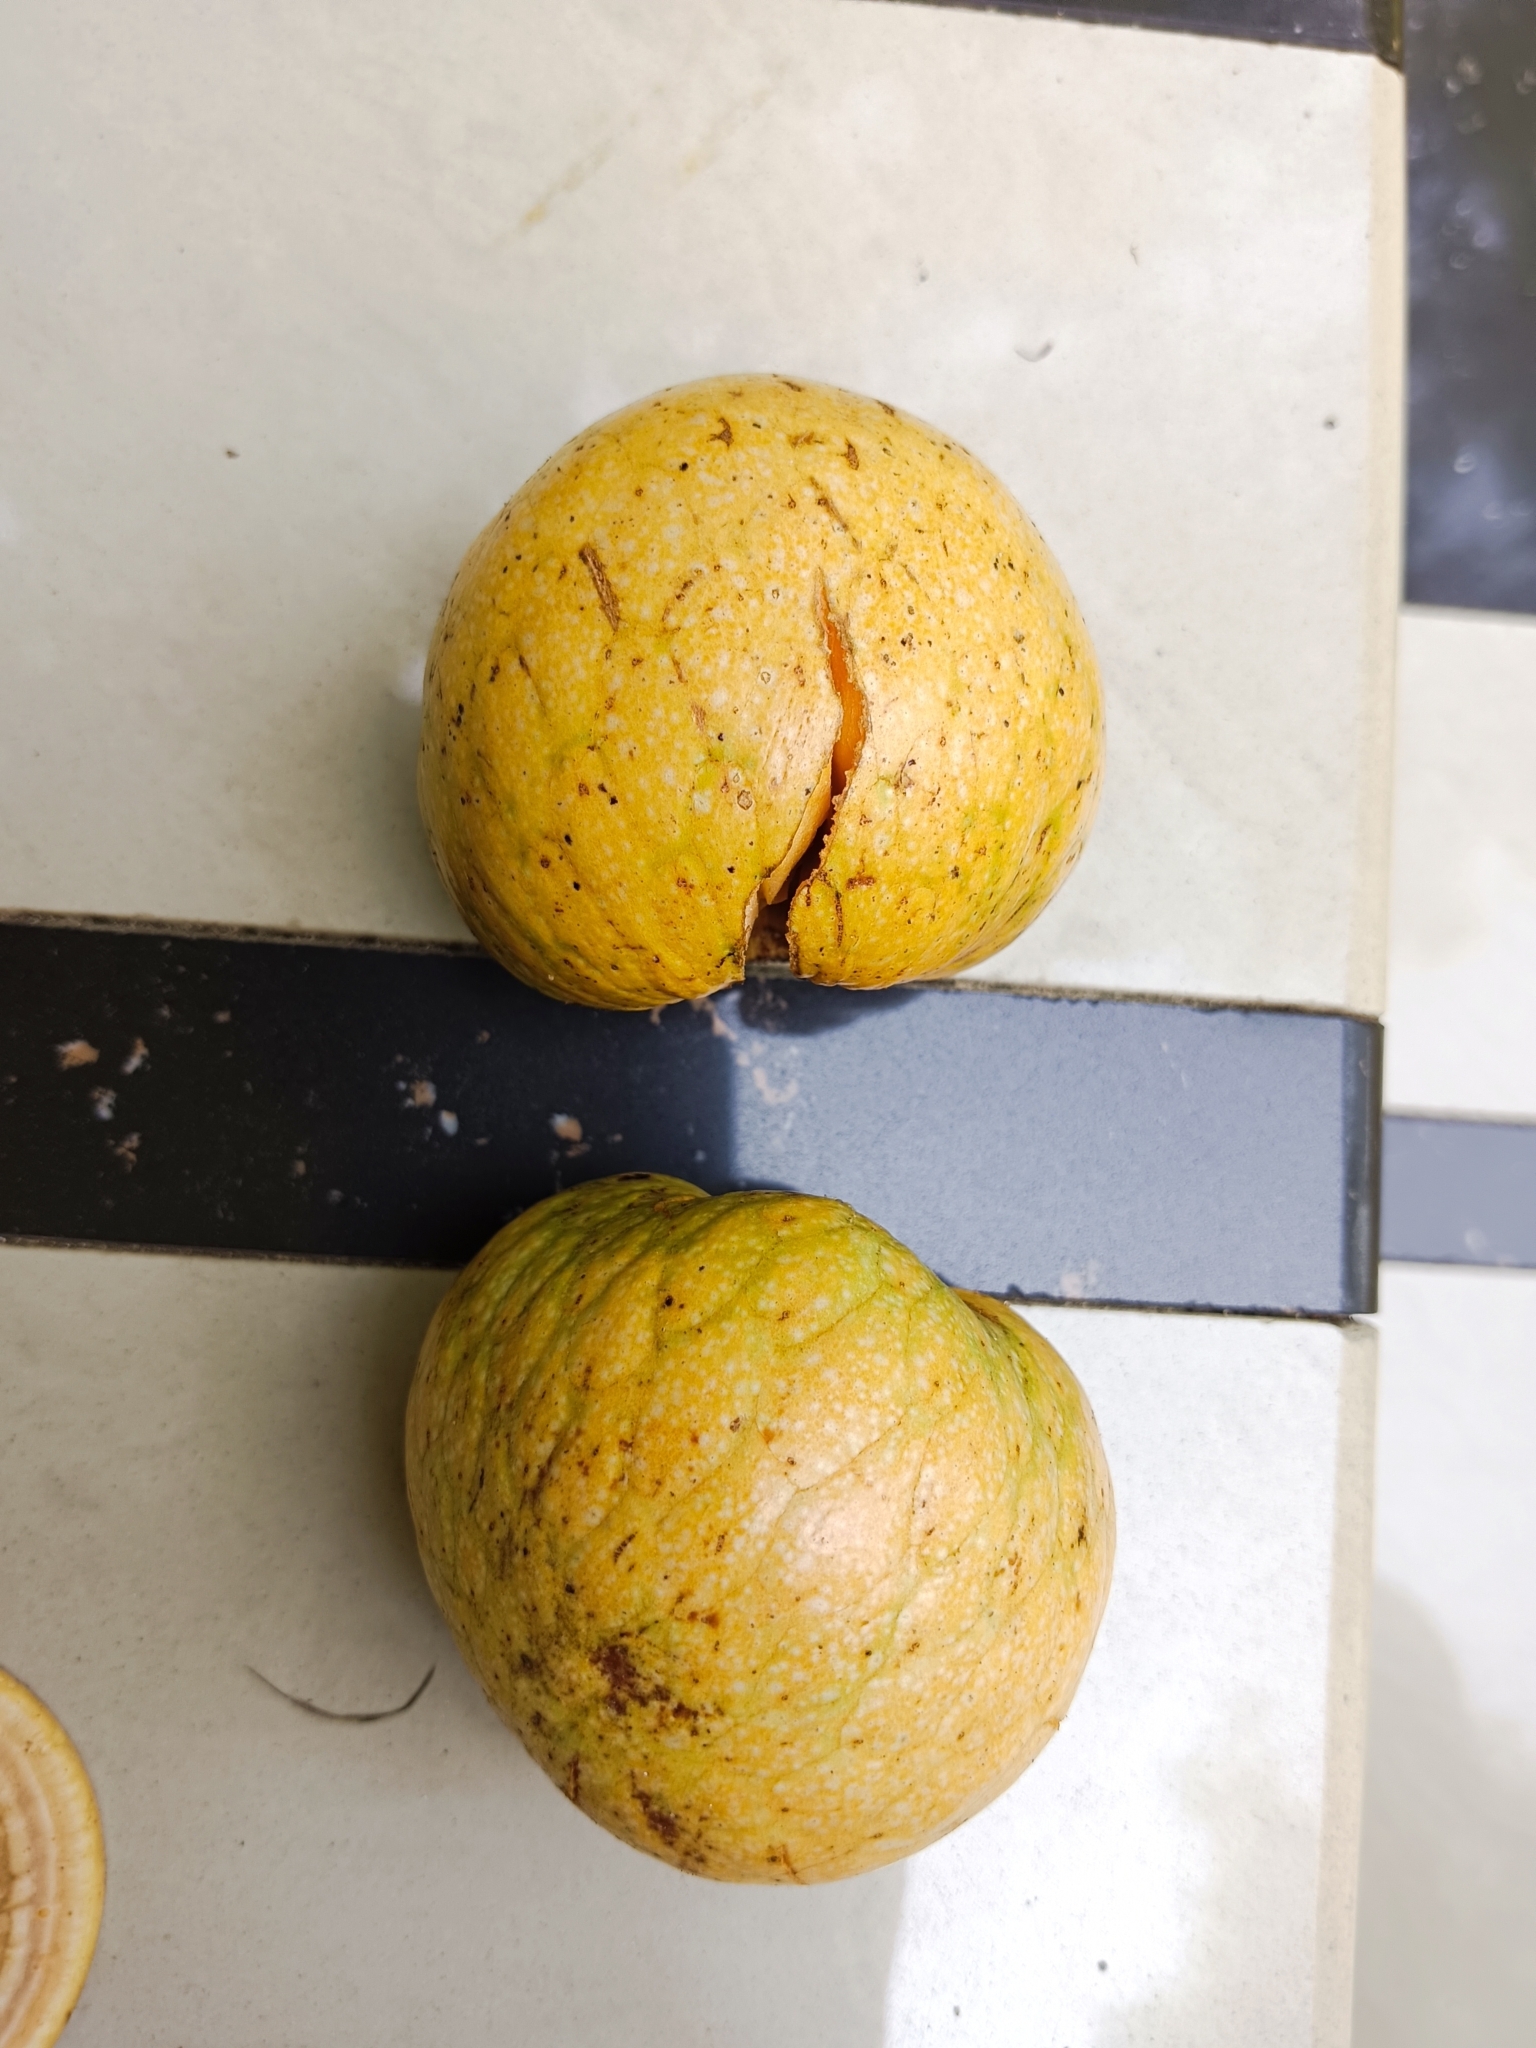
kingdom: Plantae
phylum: Tracheophyta
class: Magnoliopsida
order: Magnoliales
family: Annonaceae
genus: Annona
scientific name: Annona glabra
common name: Monkey apple
